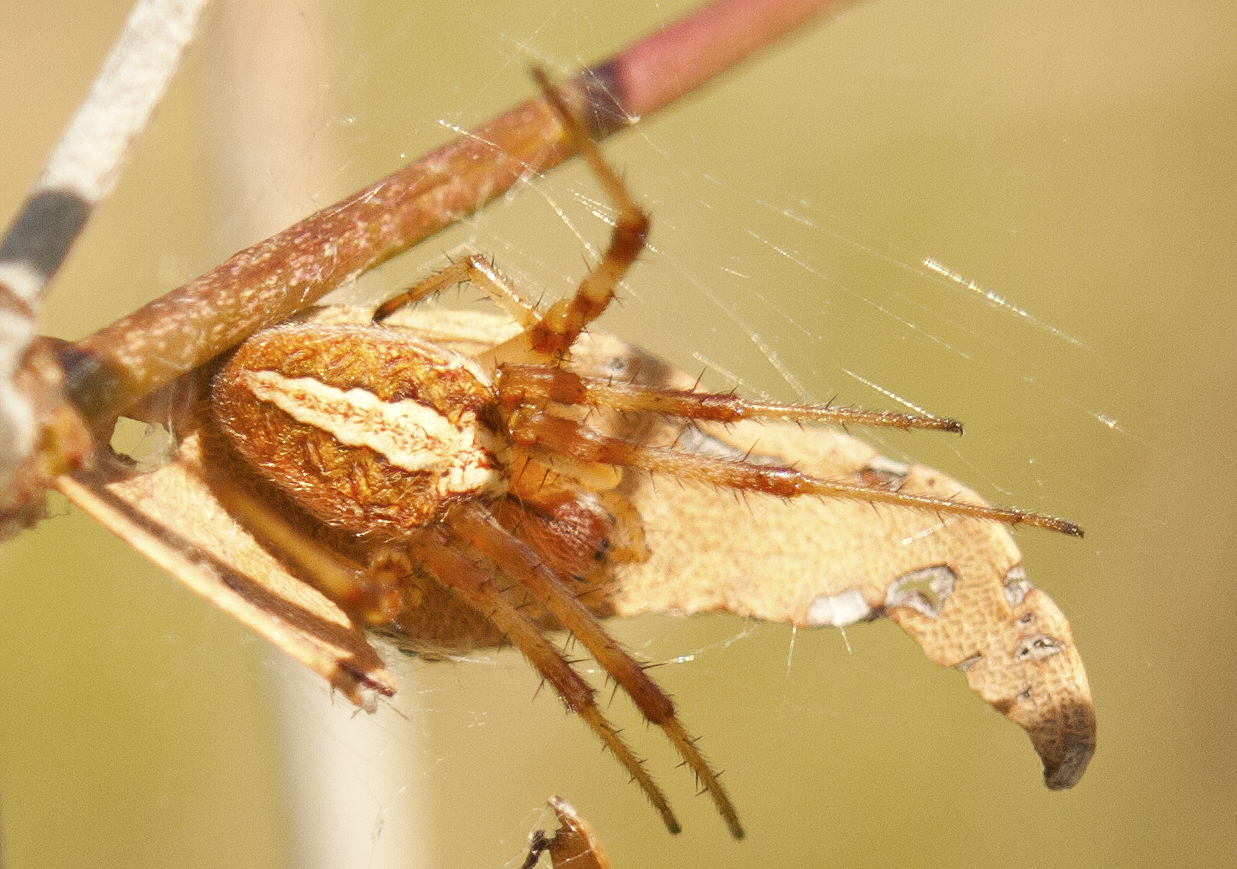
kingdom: Animalia
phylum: Arthropoda
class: Arachnida
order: Araneae
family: Araneidae
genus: Neoscona
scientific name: Neoscona theisi
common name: Spider
